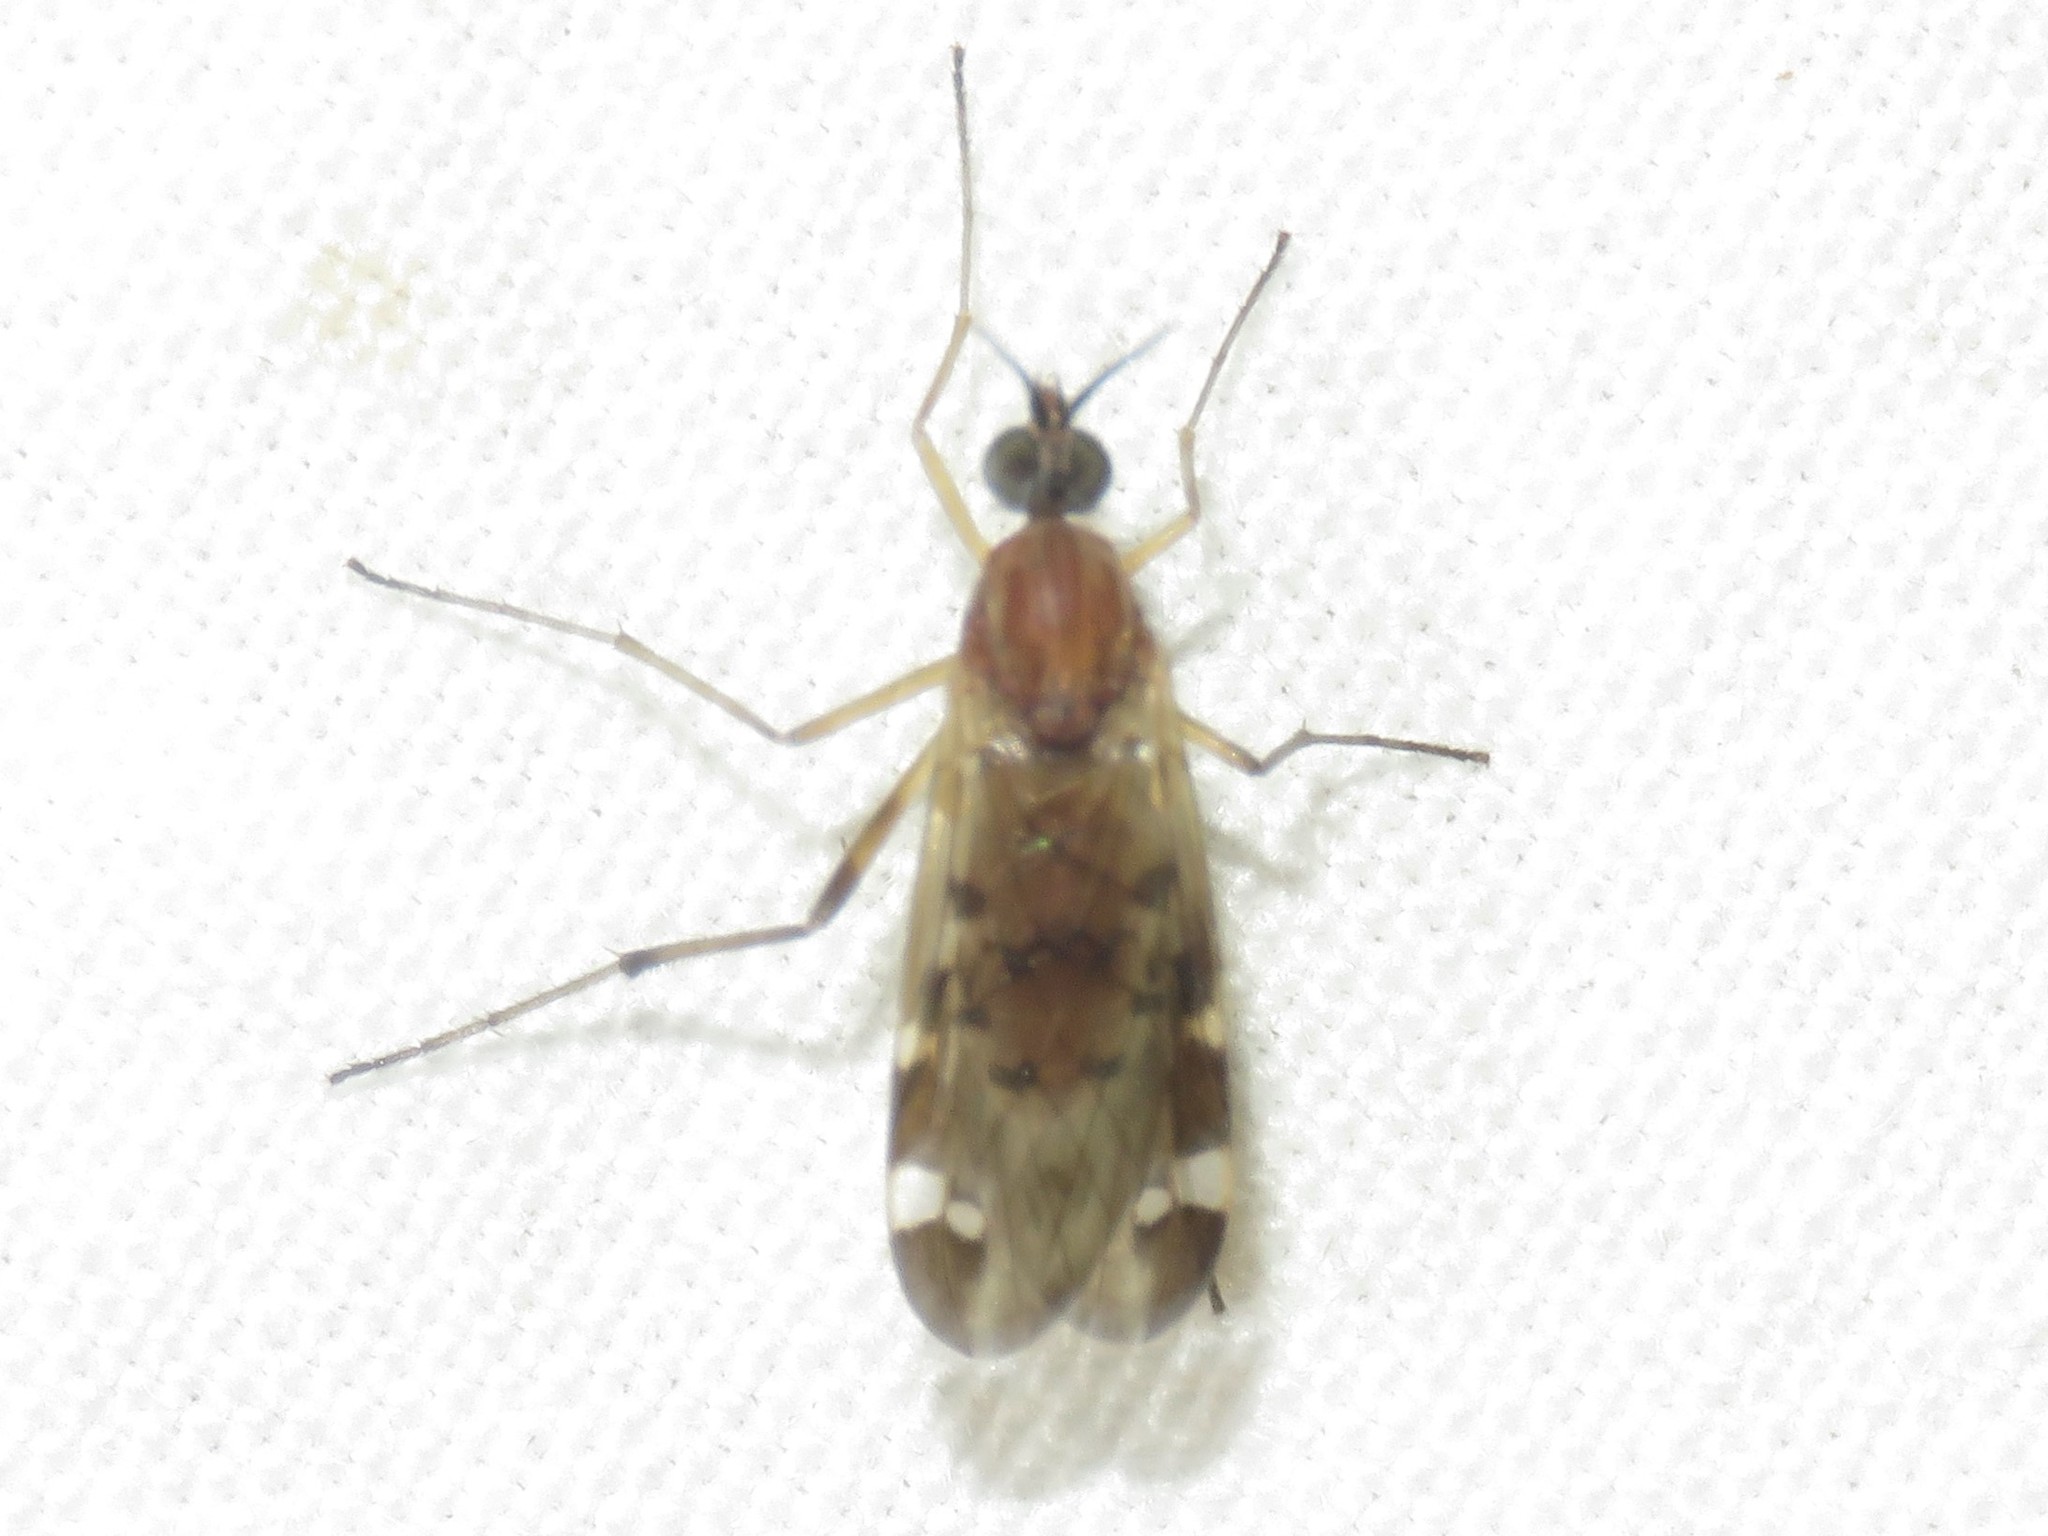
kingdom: Animalia
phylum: Arthropoda
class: Insecta
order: Diptera
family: Anisopodidae
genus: Sylvicola
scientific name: Sylvicola alternata
